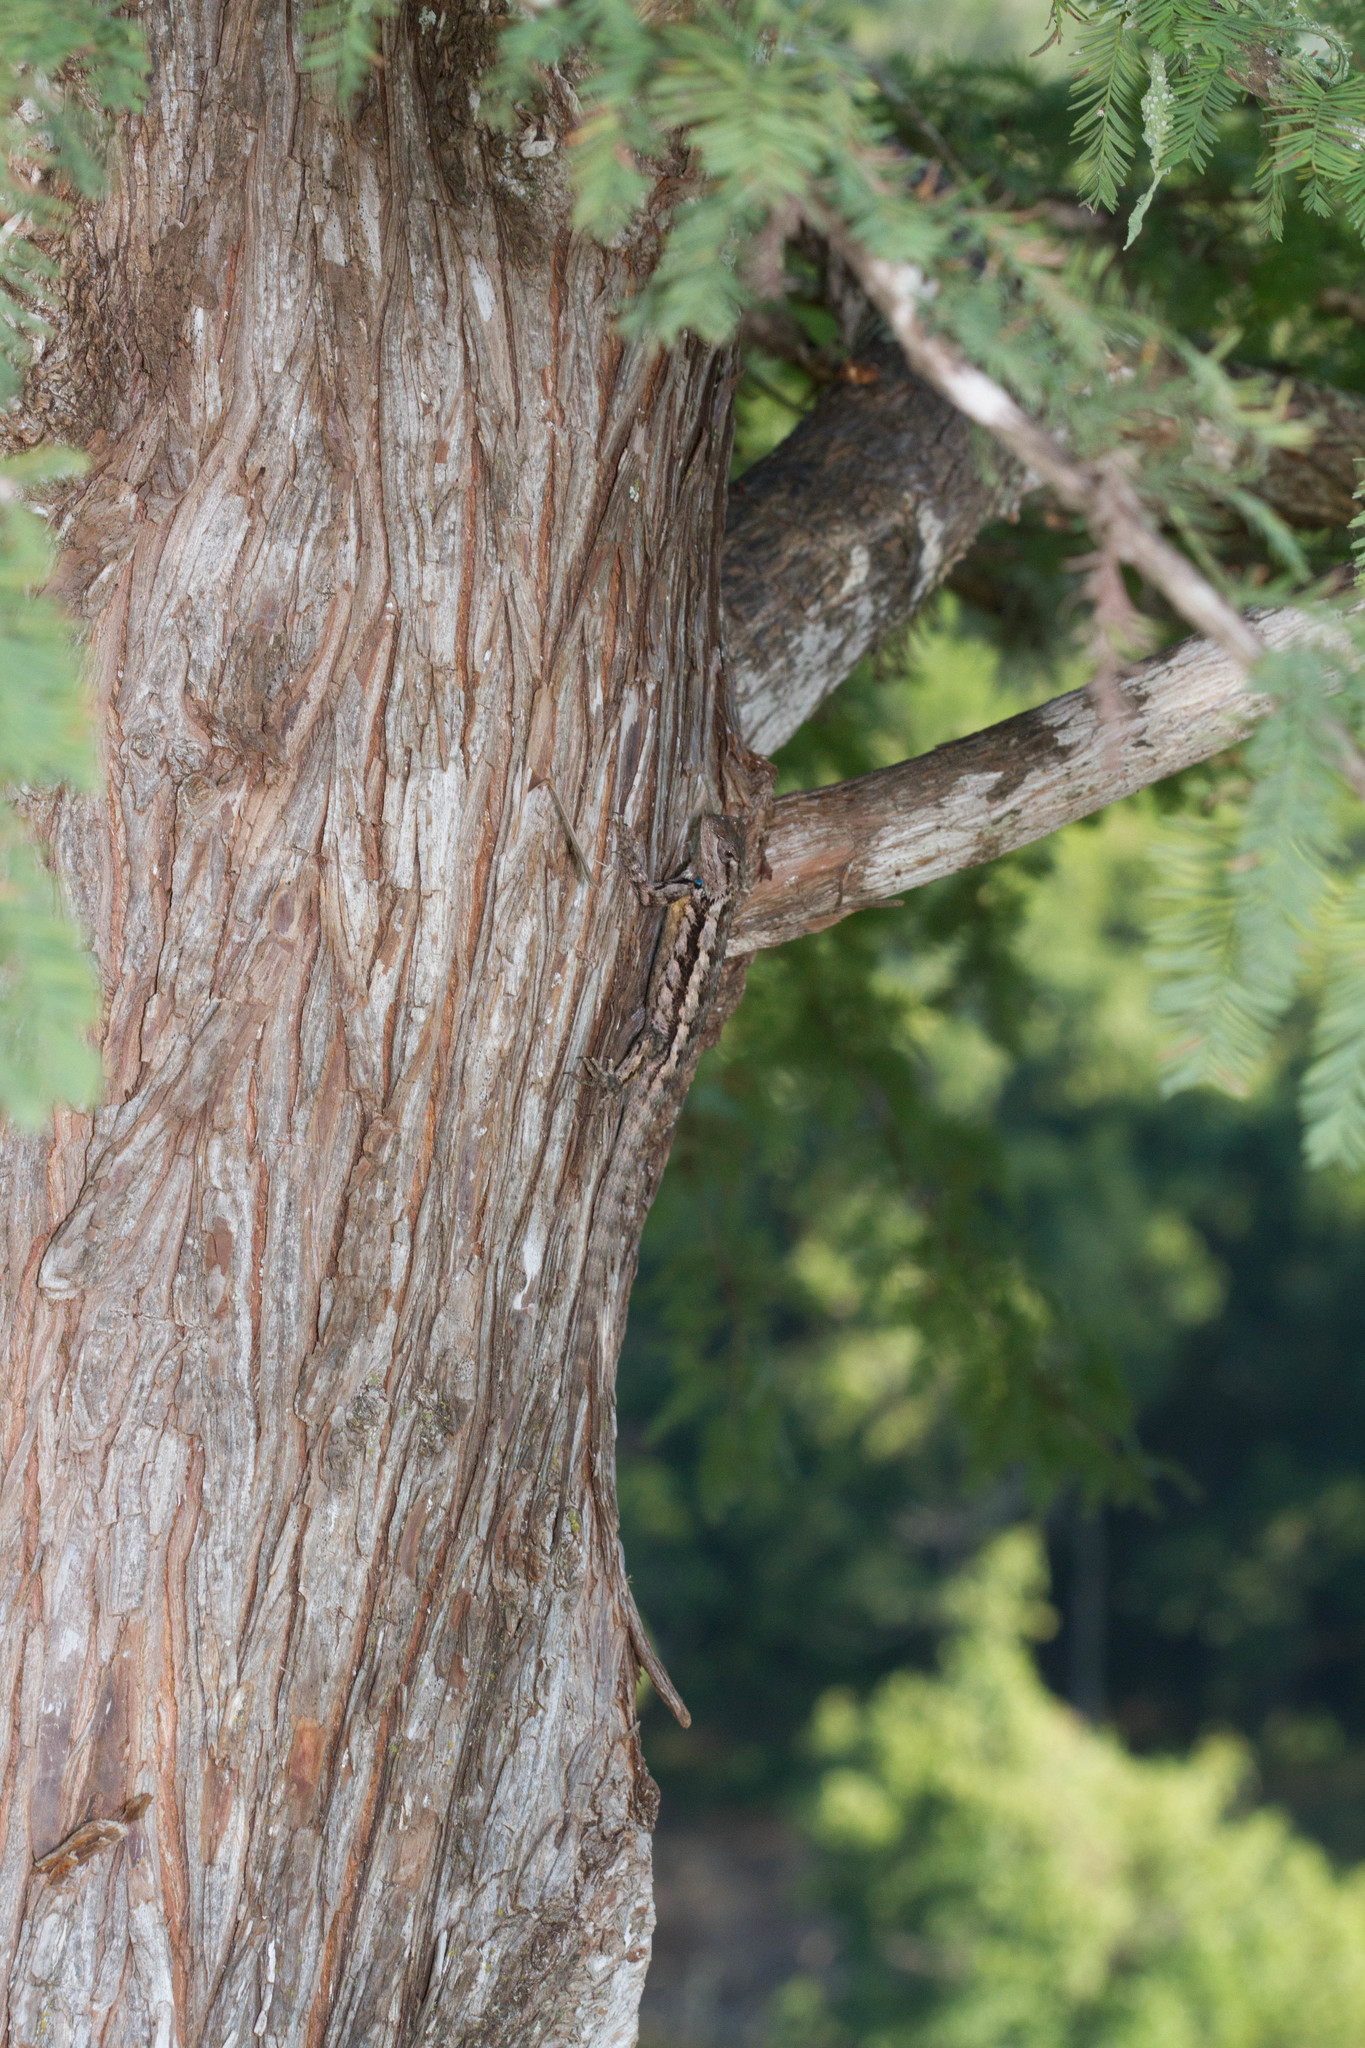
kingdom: Animalia
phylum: Chordata
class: Squamata
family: Phrynosomatidae
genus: Sceloporus
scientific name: Sceloporus olivaceus
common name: Texas spiny lizard
